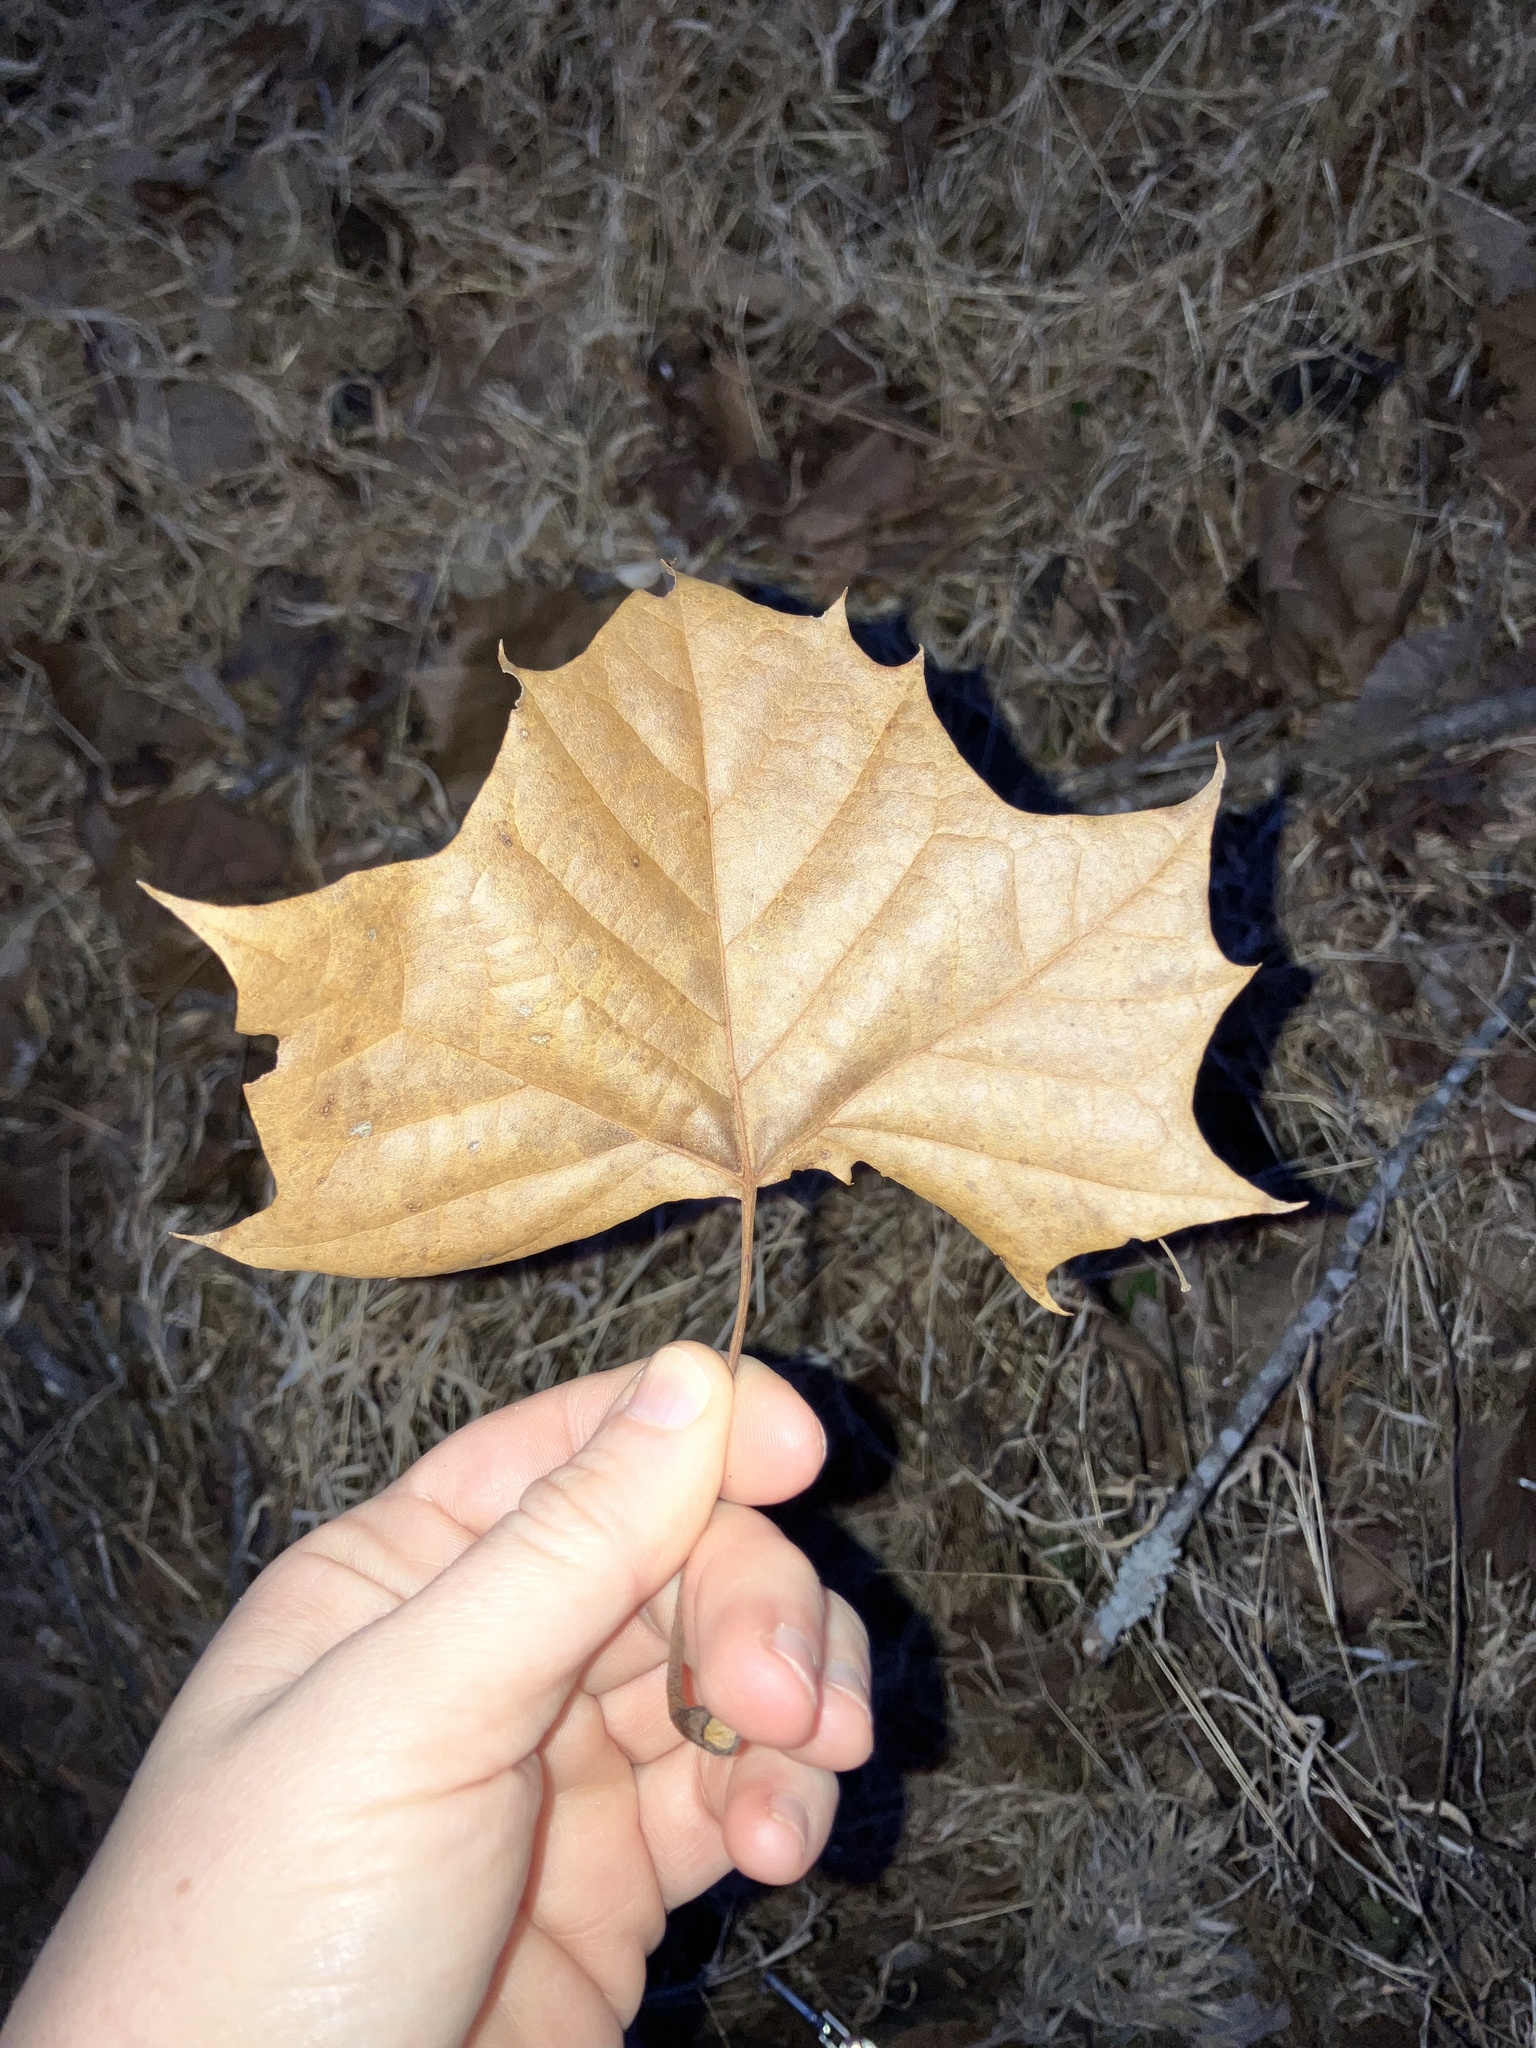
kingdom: Plantae
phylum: Tracheophyta
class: Magnoliopsida
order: Proteales
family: Platanaceae
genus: Platanus
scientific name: Platanus occidentalis
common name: American sycamore
